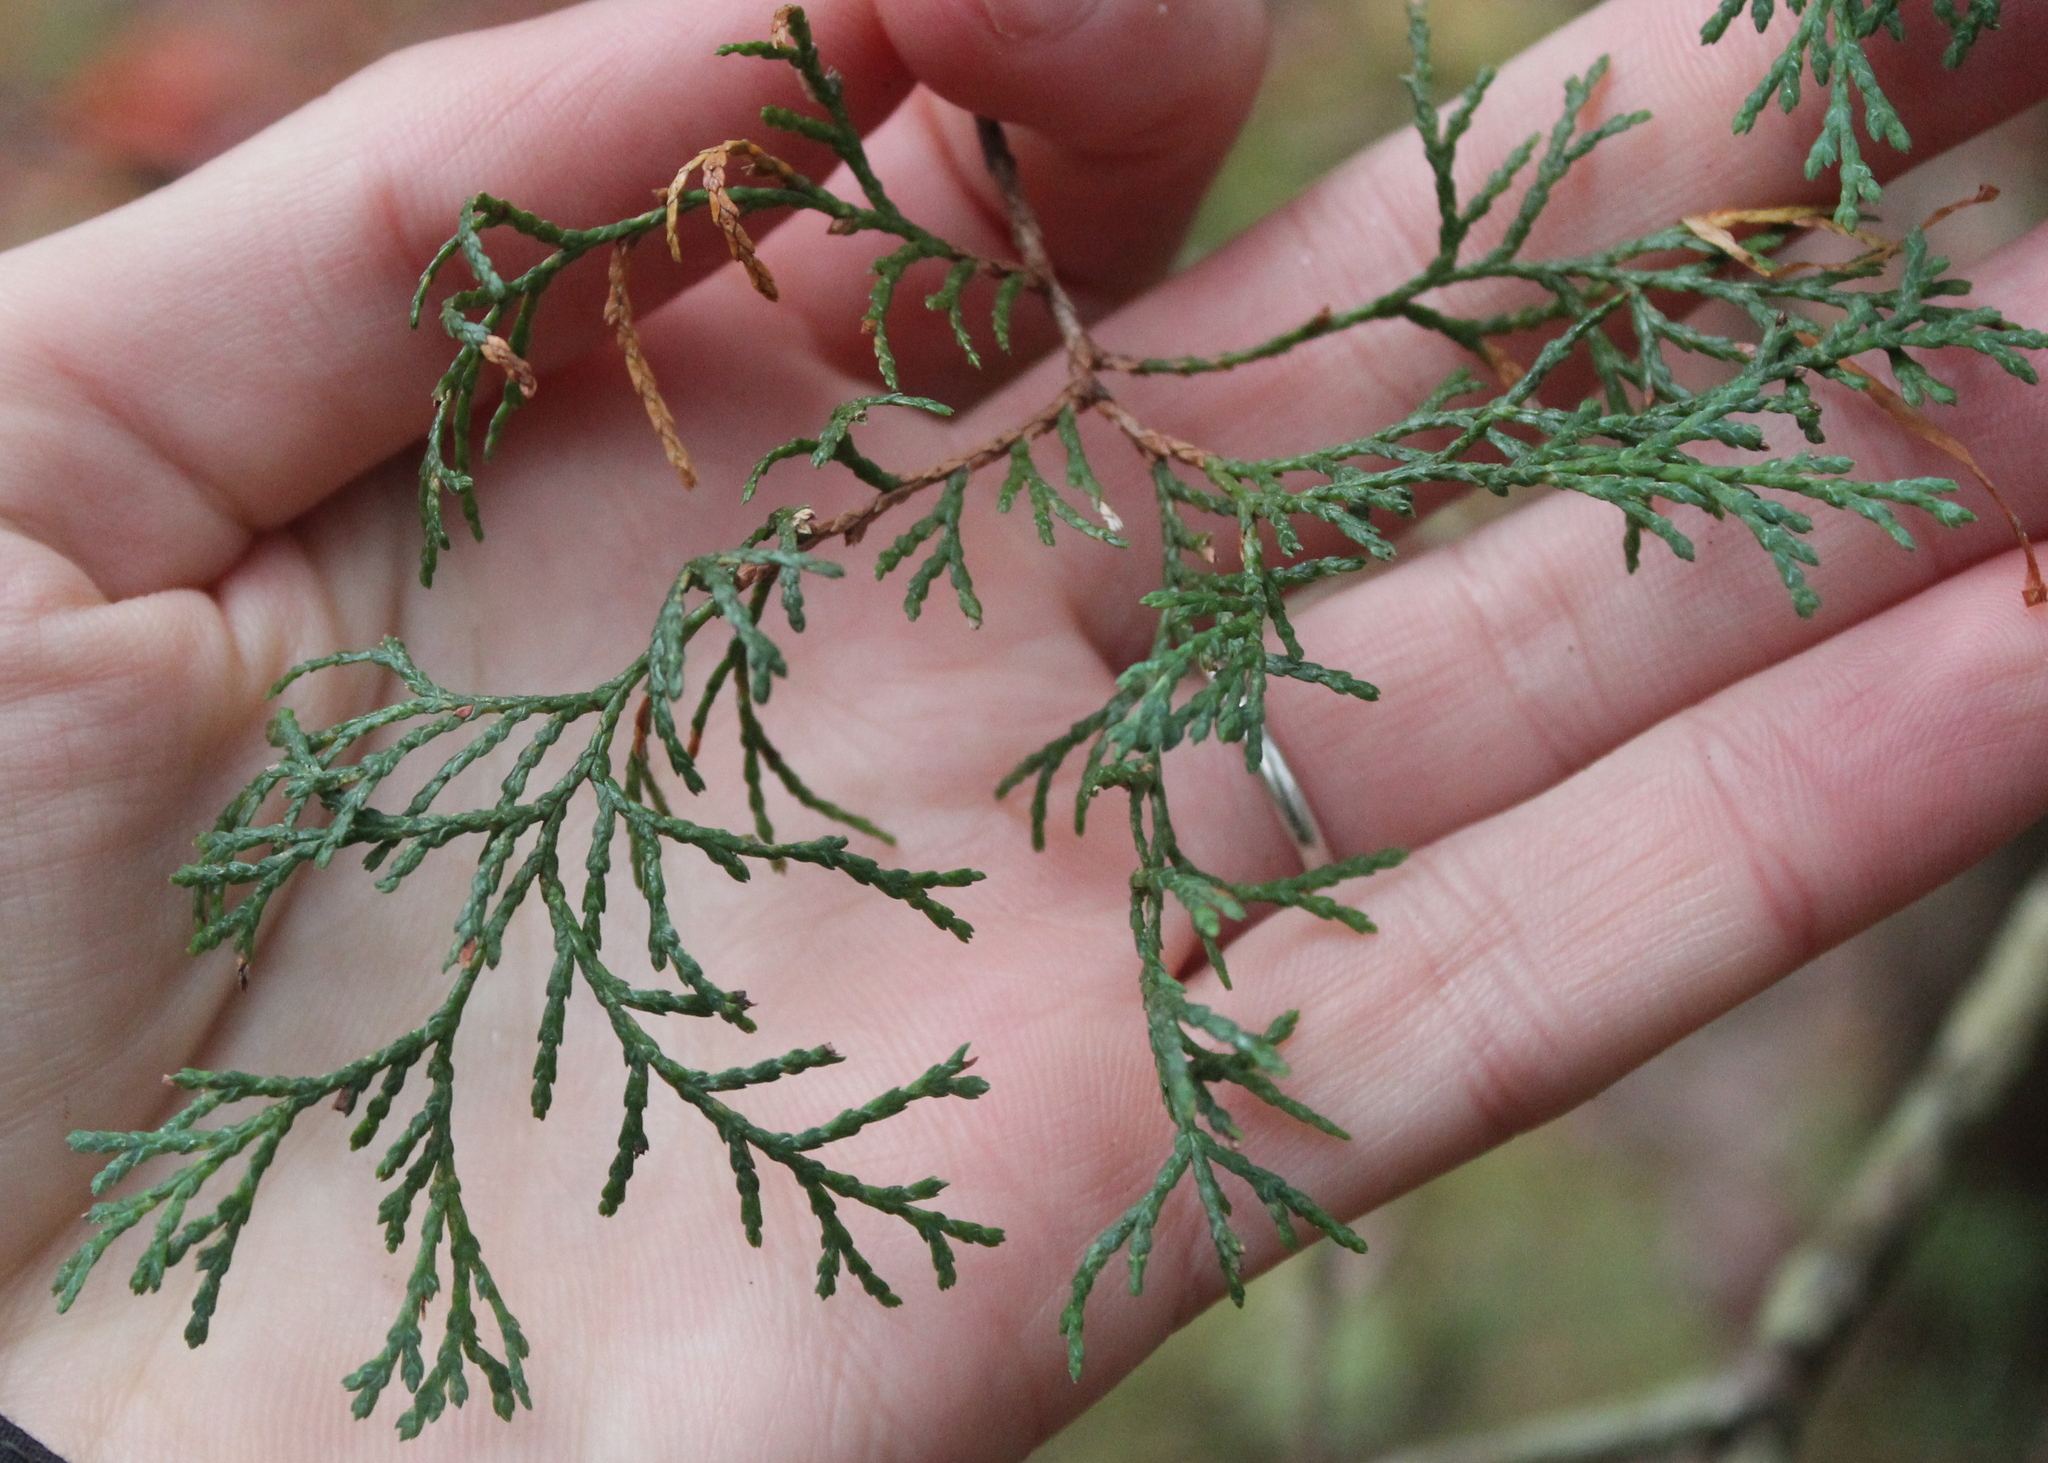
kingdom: Plantae
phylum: Tracheophyta
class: Pinopsida
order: Pinales
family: Cupressaceae
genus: Chamaecyparis
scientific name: Chamaecyparis thyoides
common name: Atlantic white cedar
